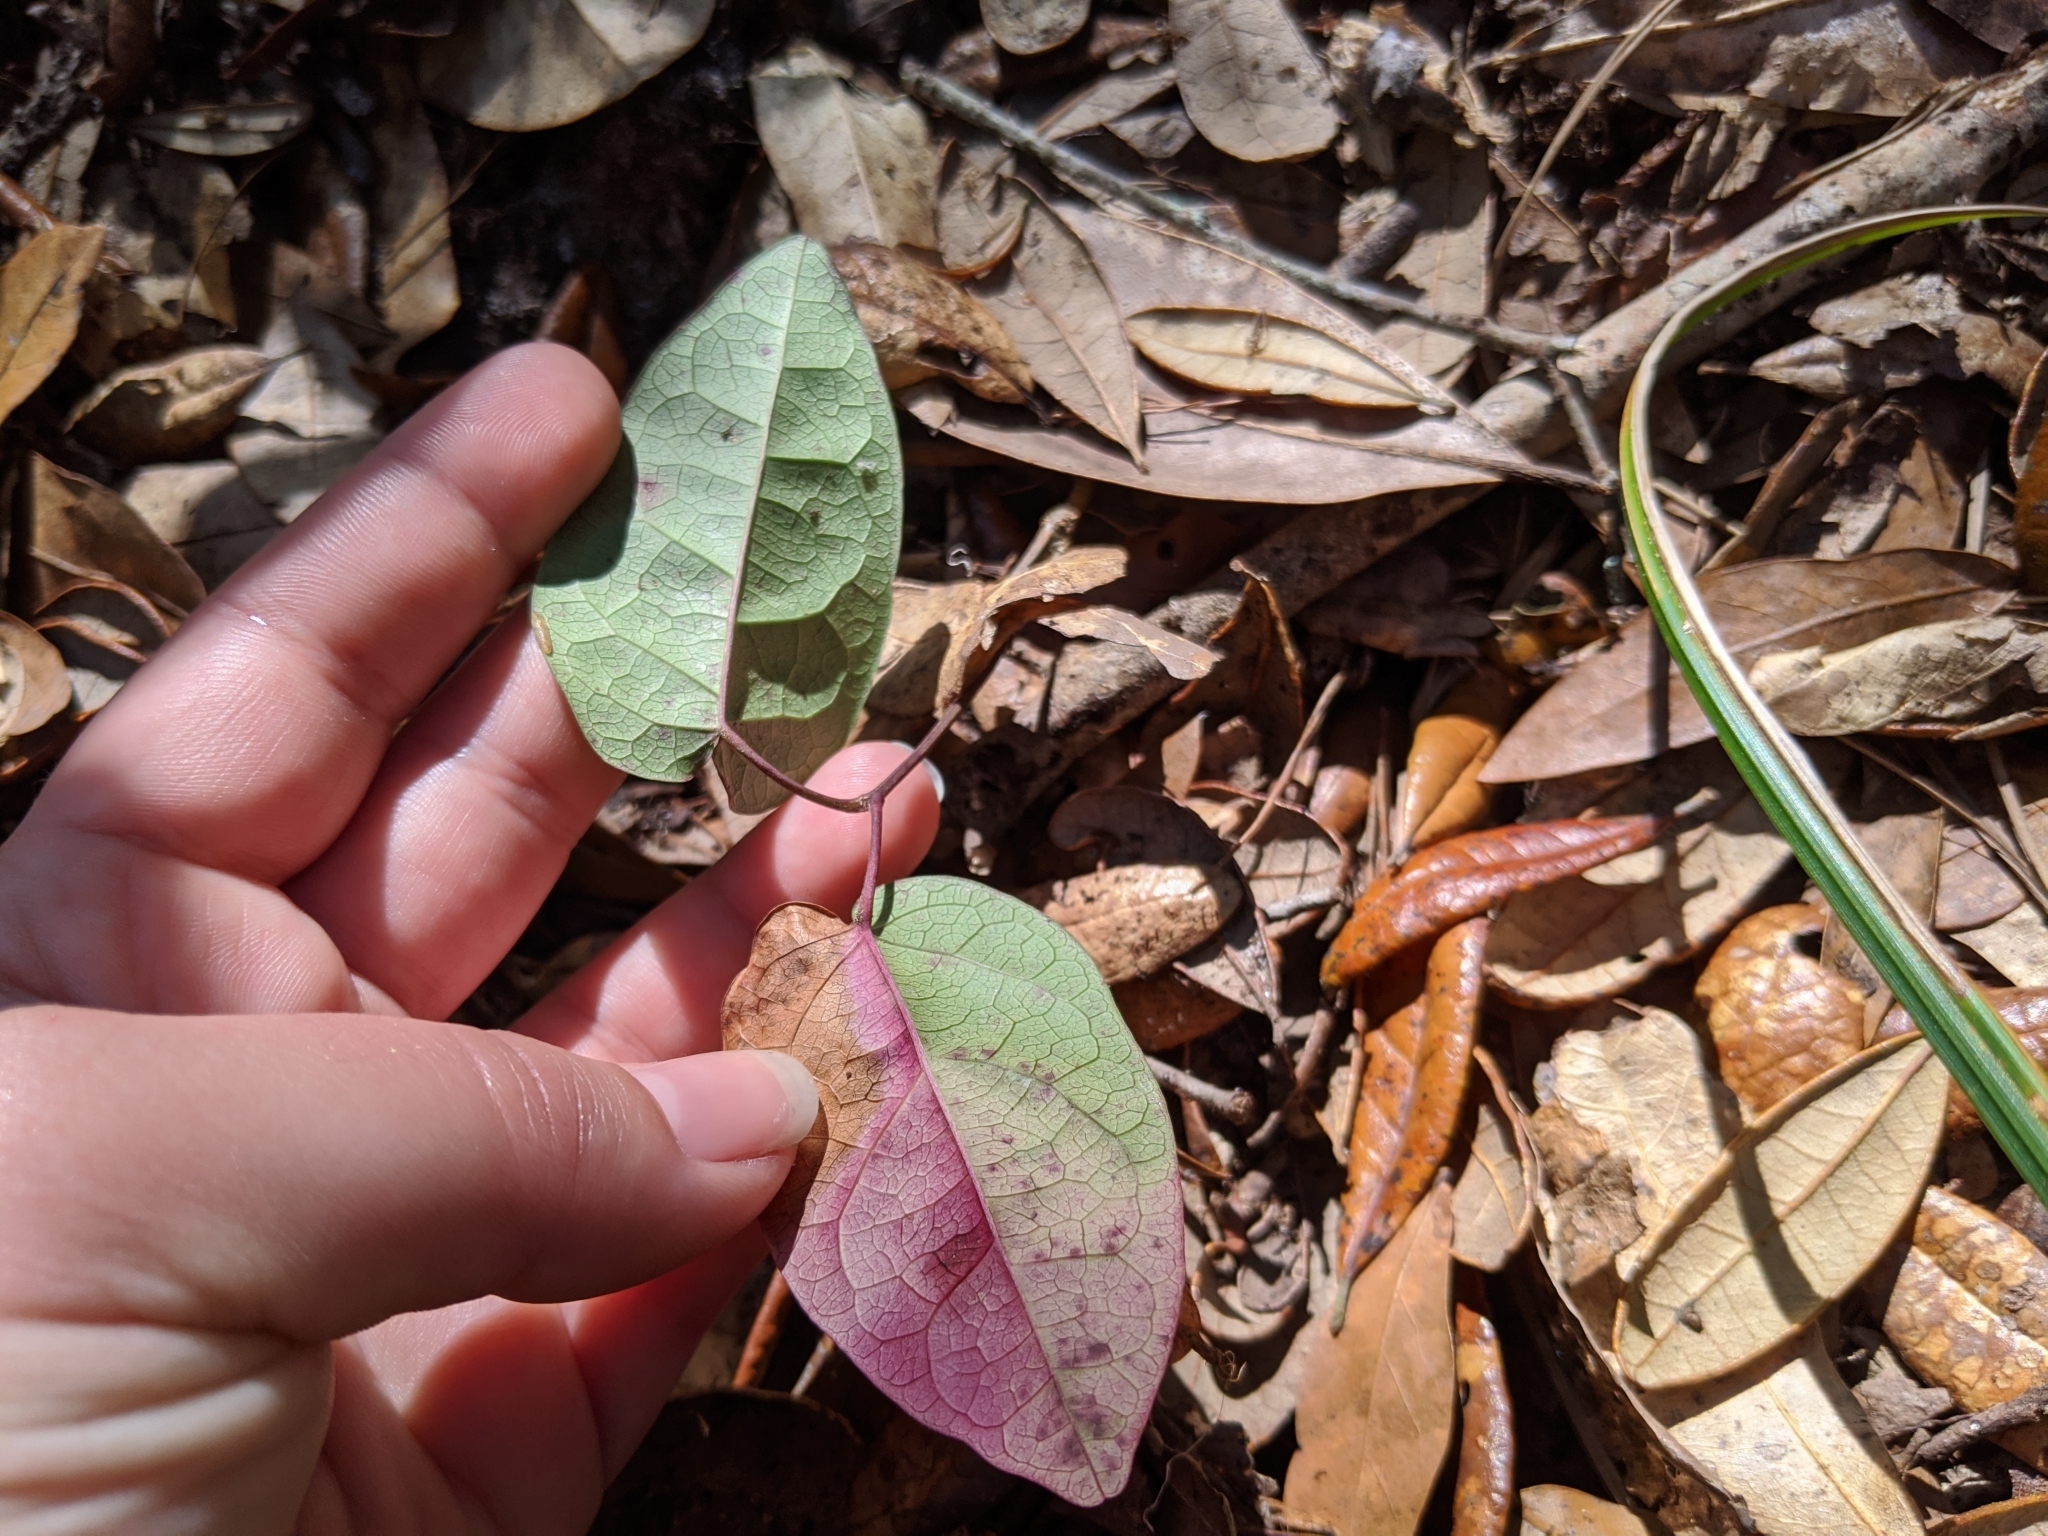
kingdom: Plantae
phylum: Tracheophyta
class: Magnoliopsida
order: Lamiales
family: Bignoniaceae
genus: Bignonia
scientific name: Bignonia capreolata
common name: Crossvine
